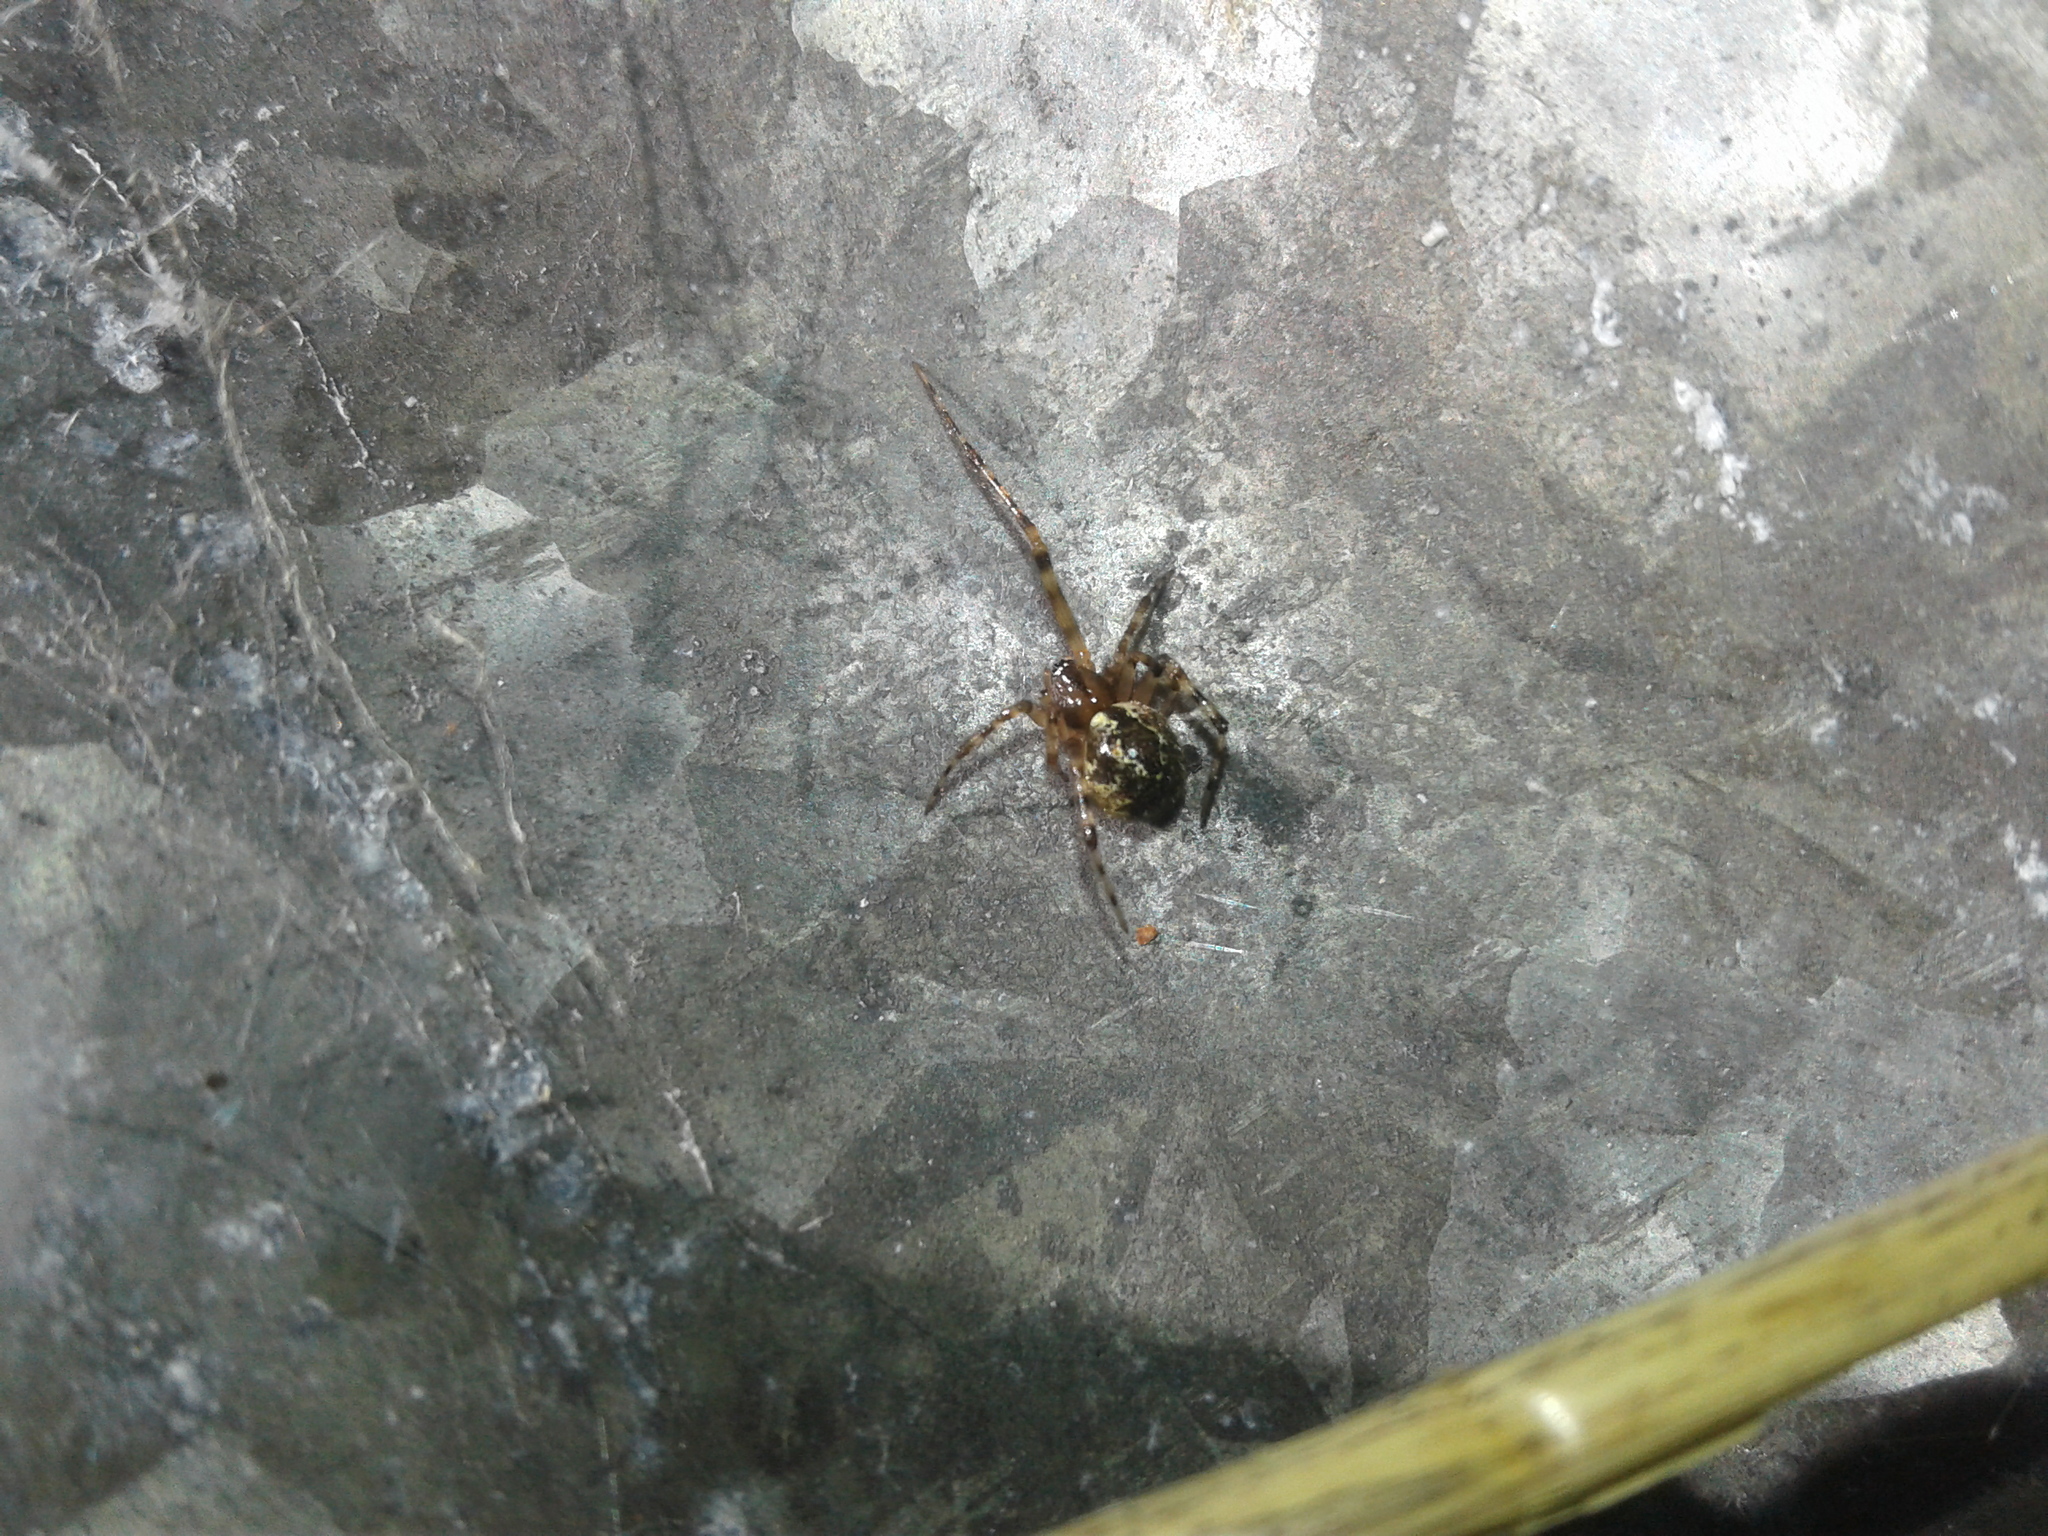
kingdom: Animalia
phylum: Arthropoda
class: Arachnida
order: Araneae
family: Theridiidae
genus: Cryptachaea
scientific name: Cryptachaea veruculata
